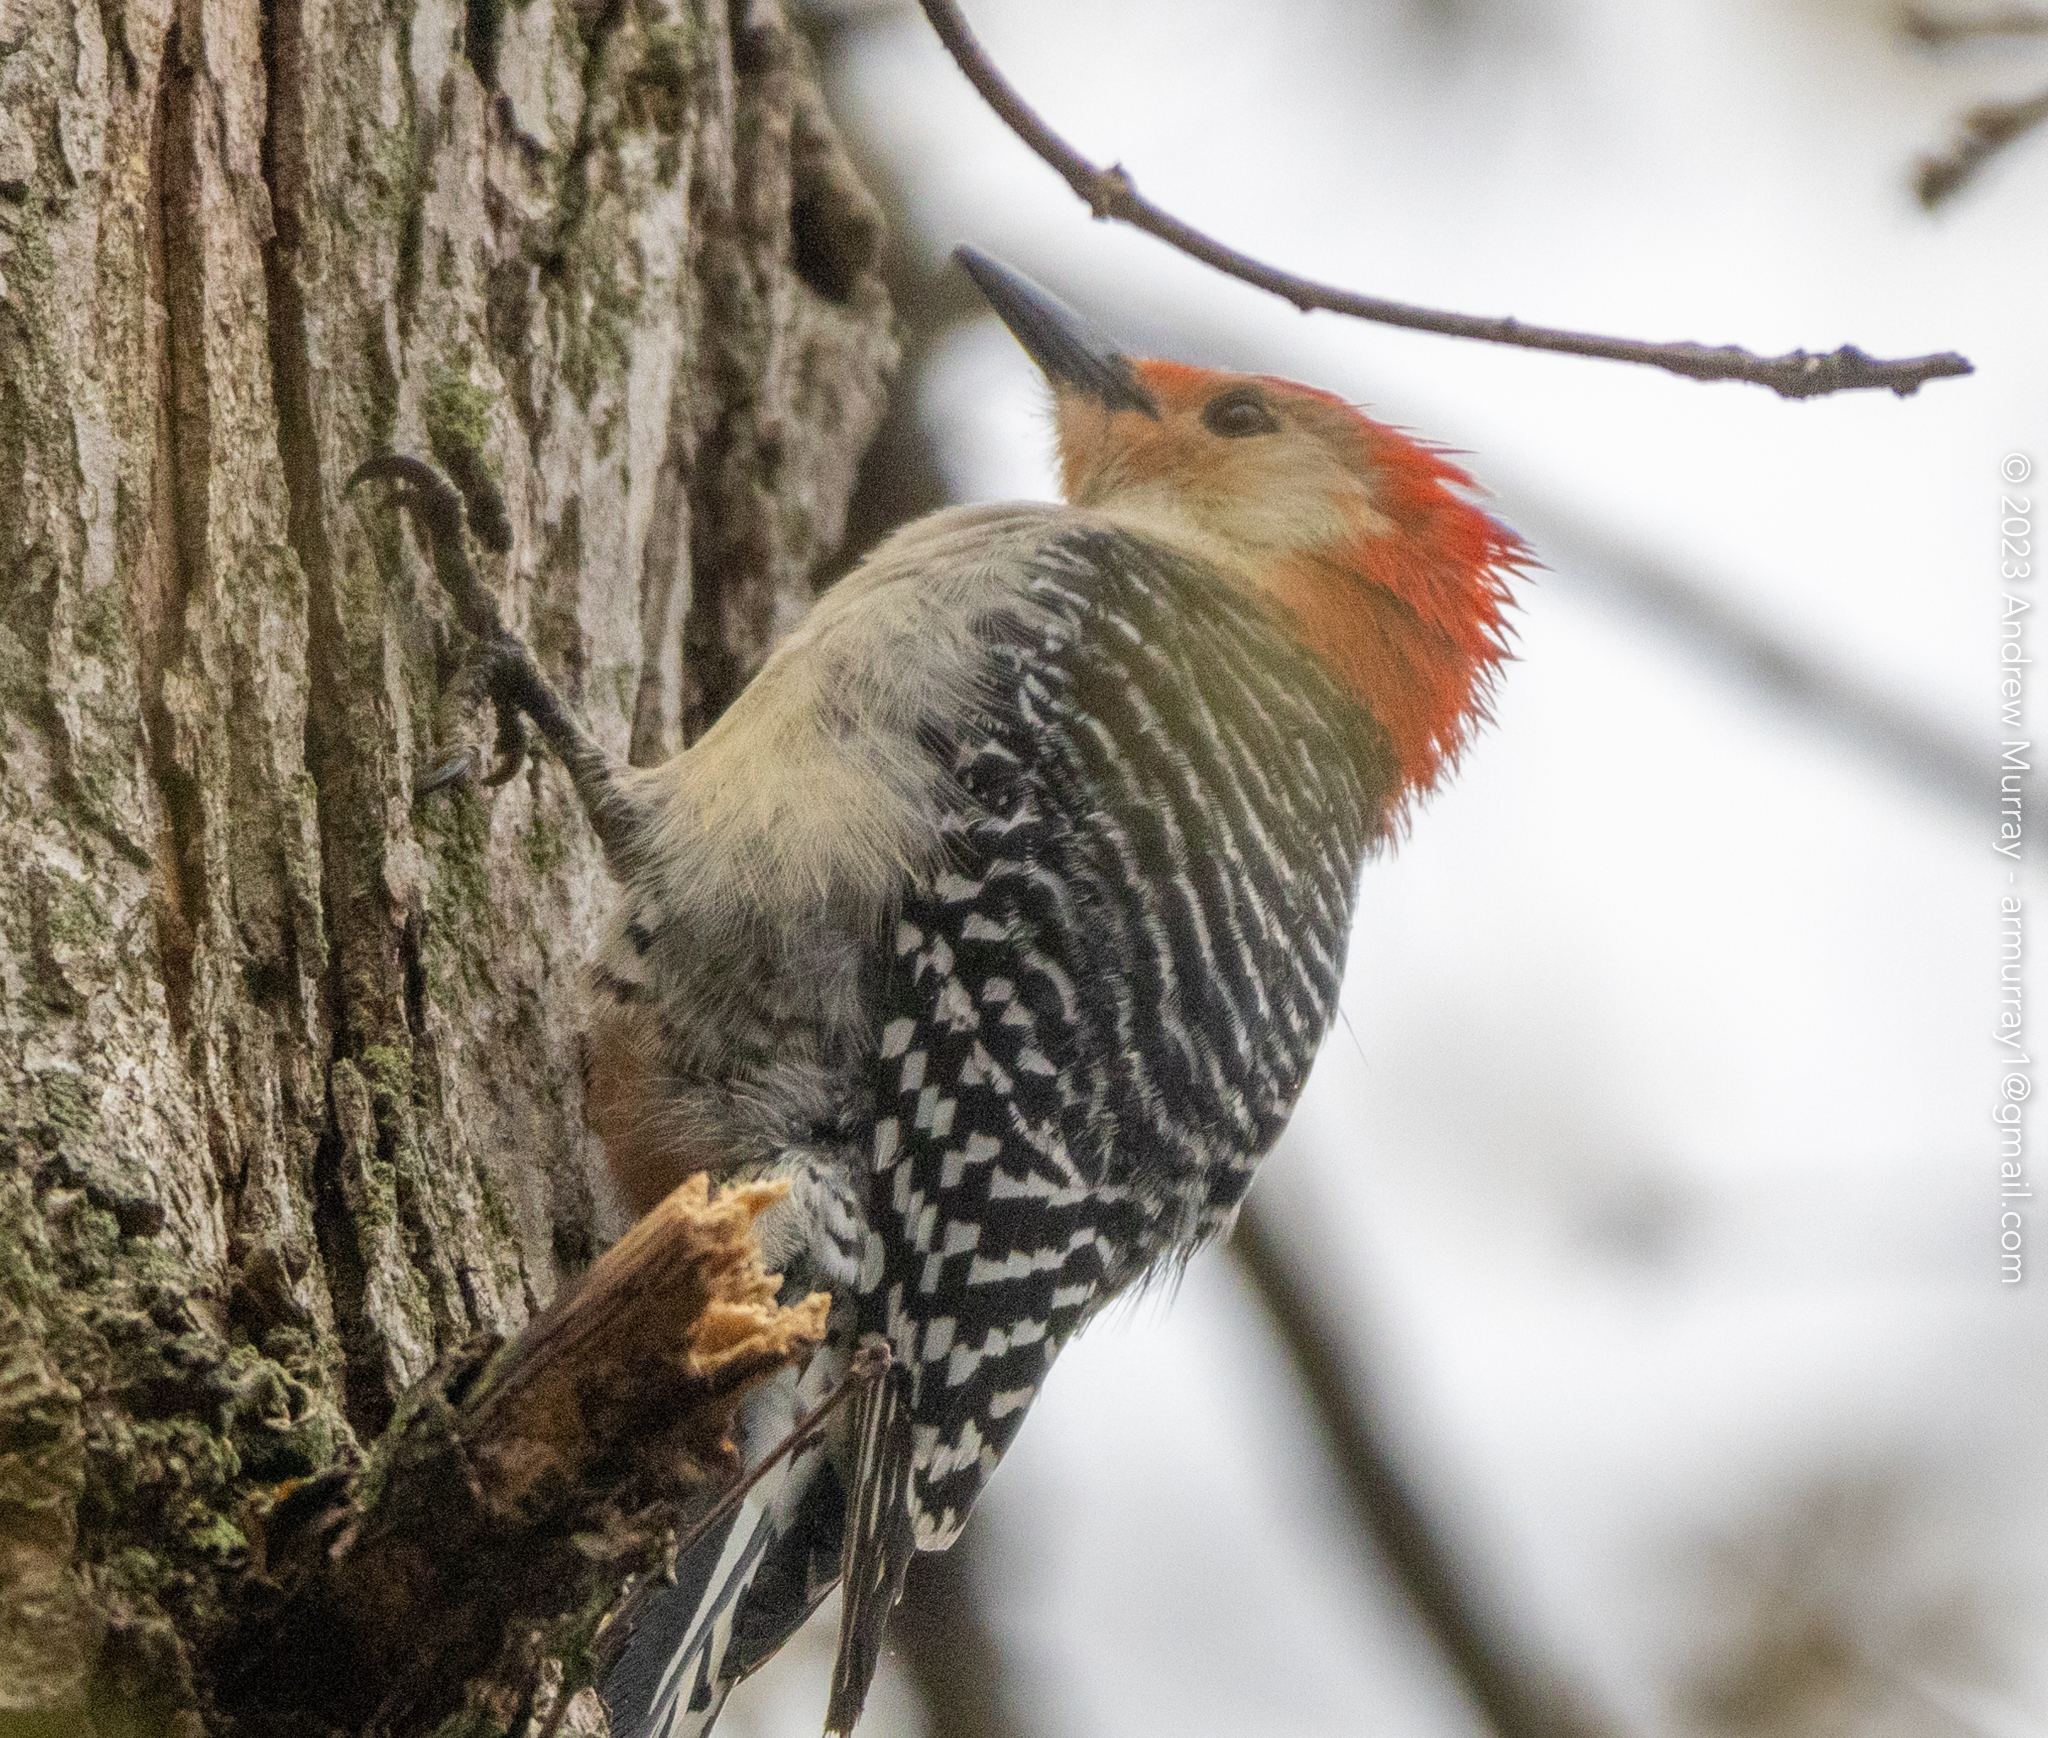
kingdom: Animalia
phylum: Chordata
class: Aves
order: Piciformes
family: Picidae
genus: Melanerpes
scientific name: Melanerpes carolinus
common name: Red-bellied woodpecker
